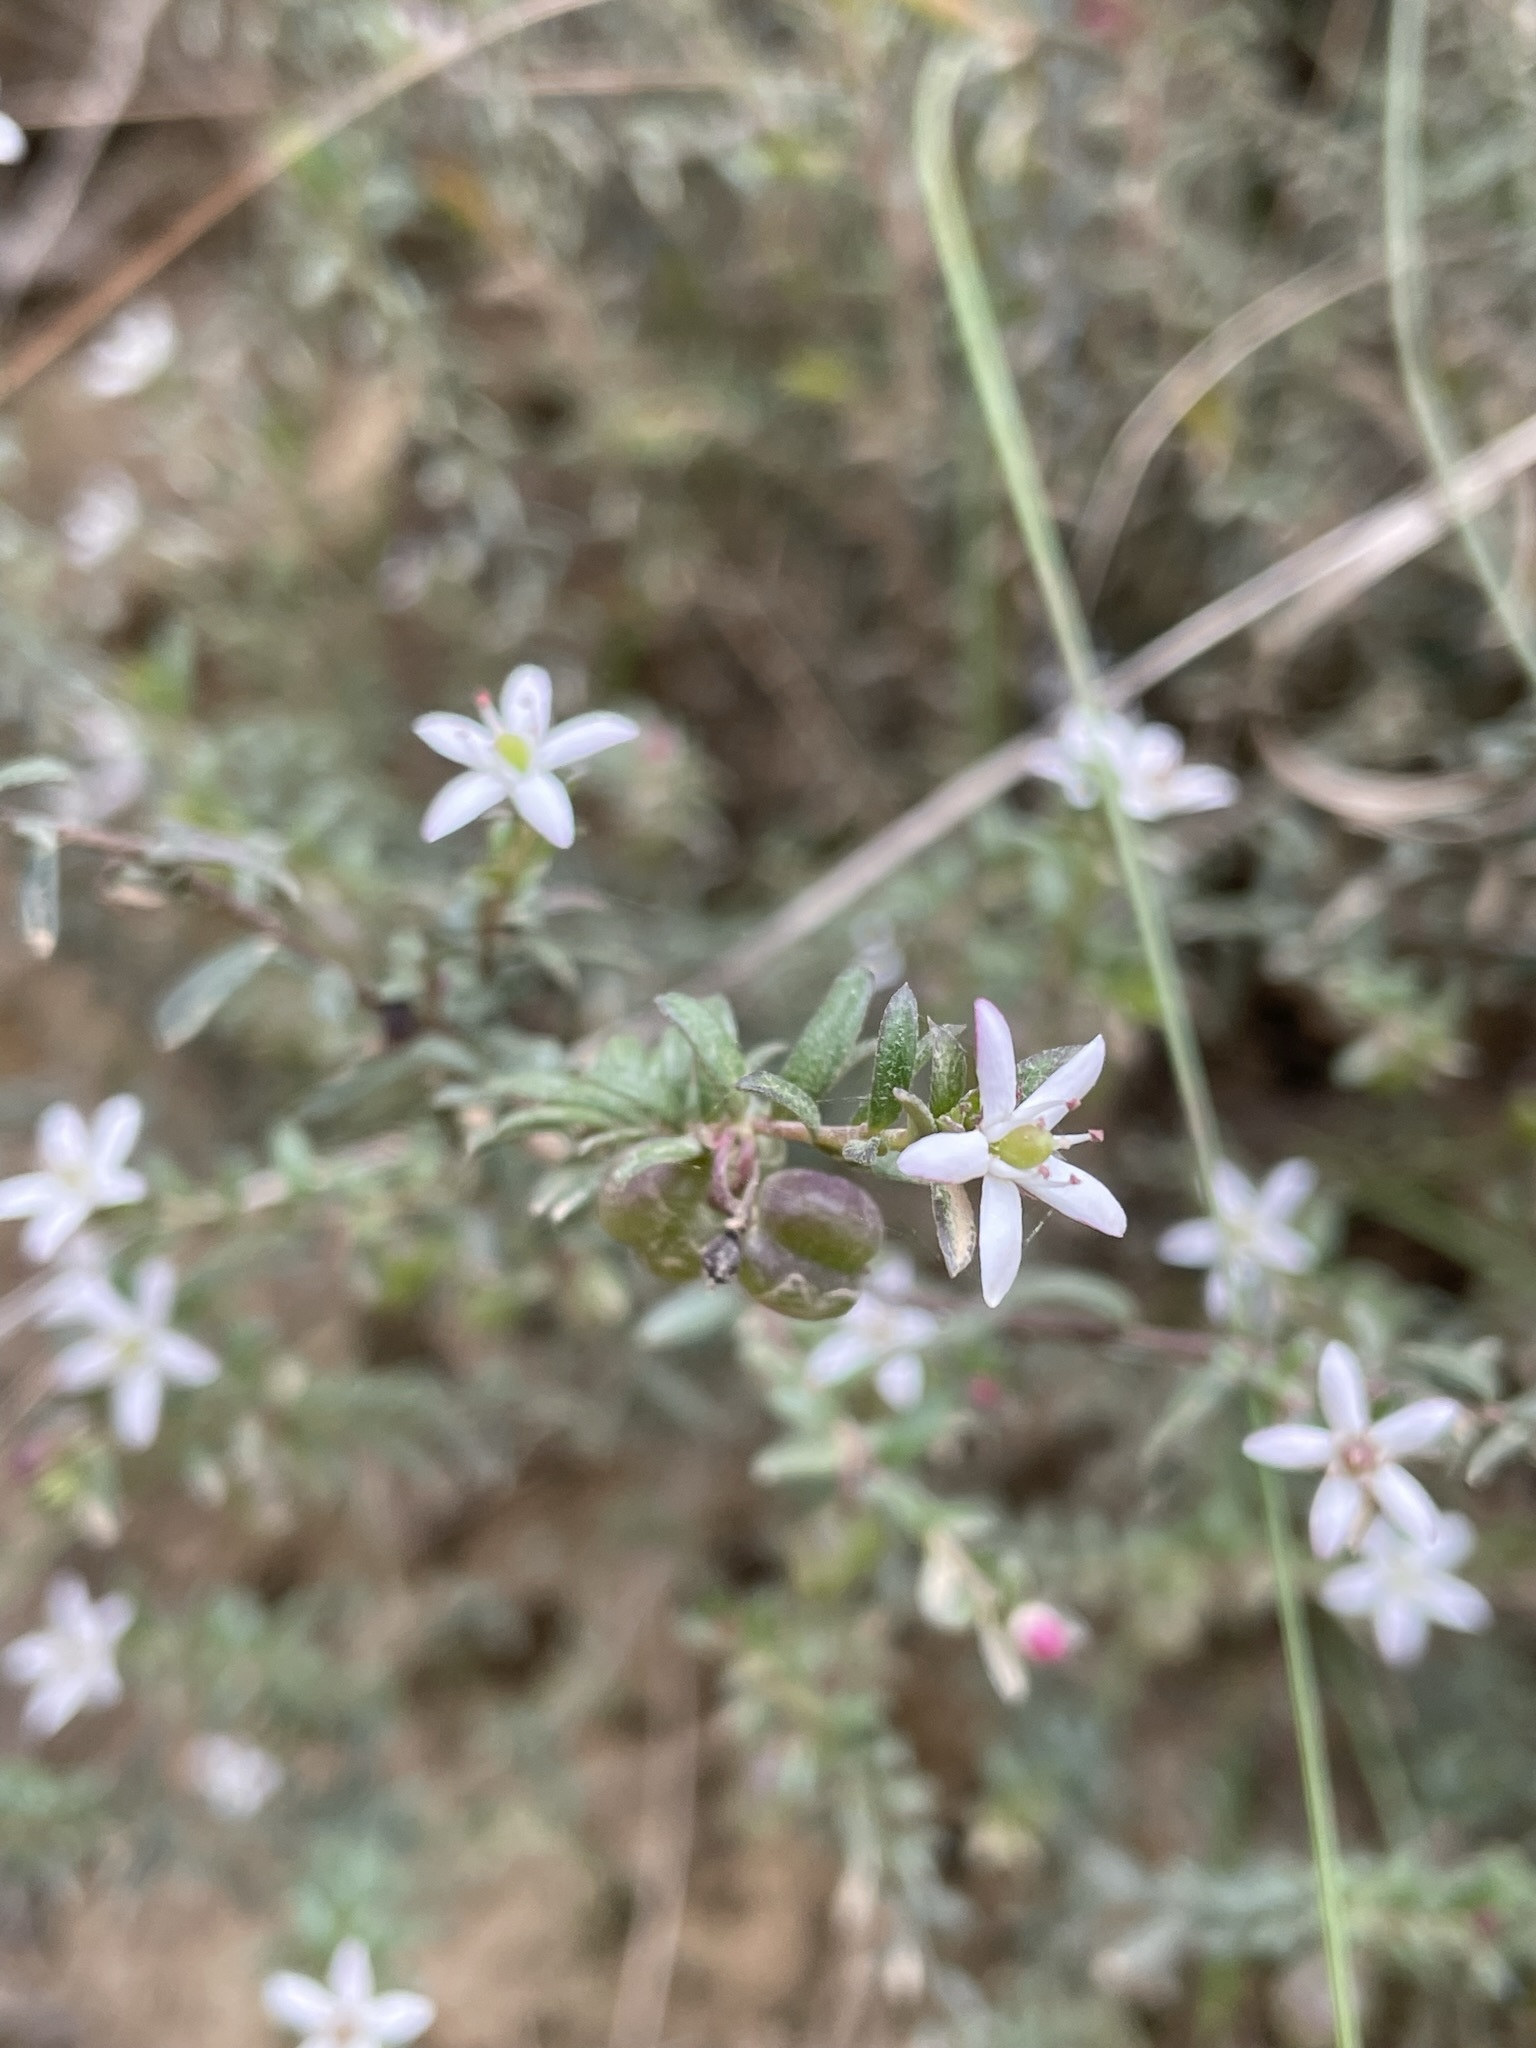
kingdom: Plantae
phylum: Tracheophyta
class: Magnoliopsida
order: Apiales
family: Pittosporaceae
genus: Rhytidosporum
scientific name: Rhytidosporum procumbens
